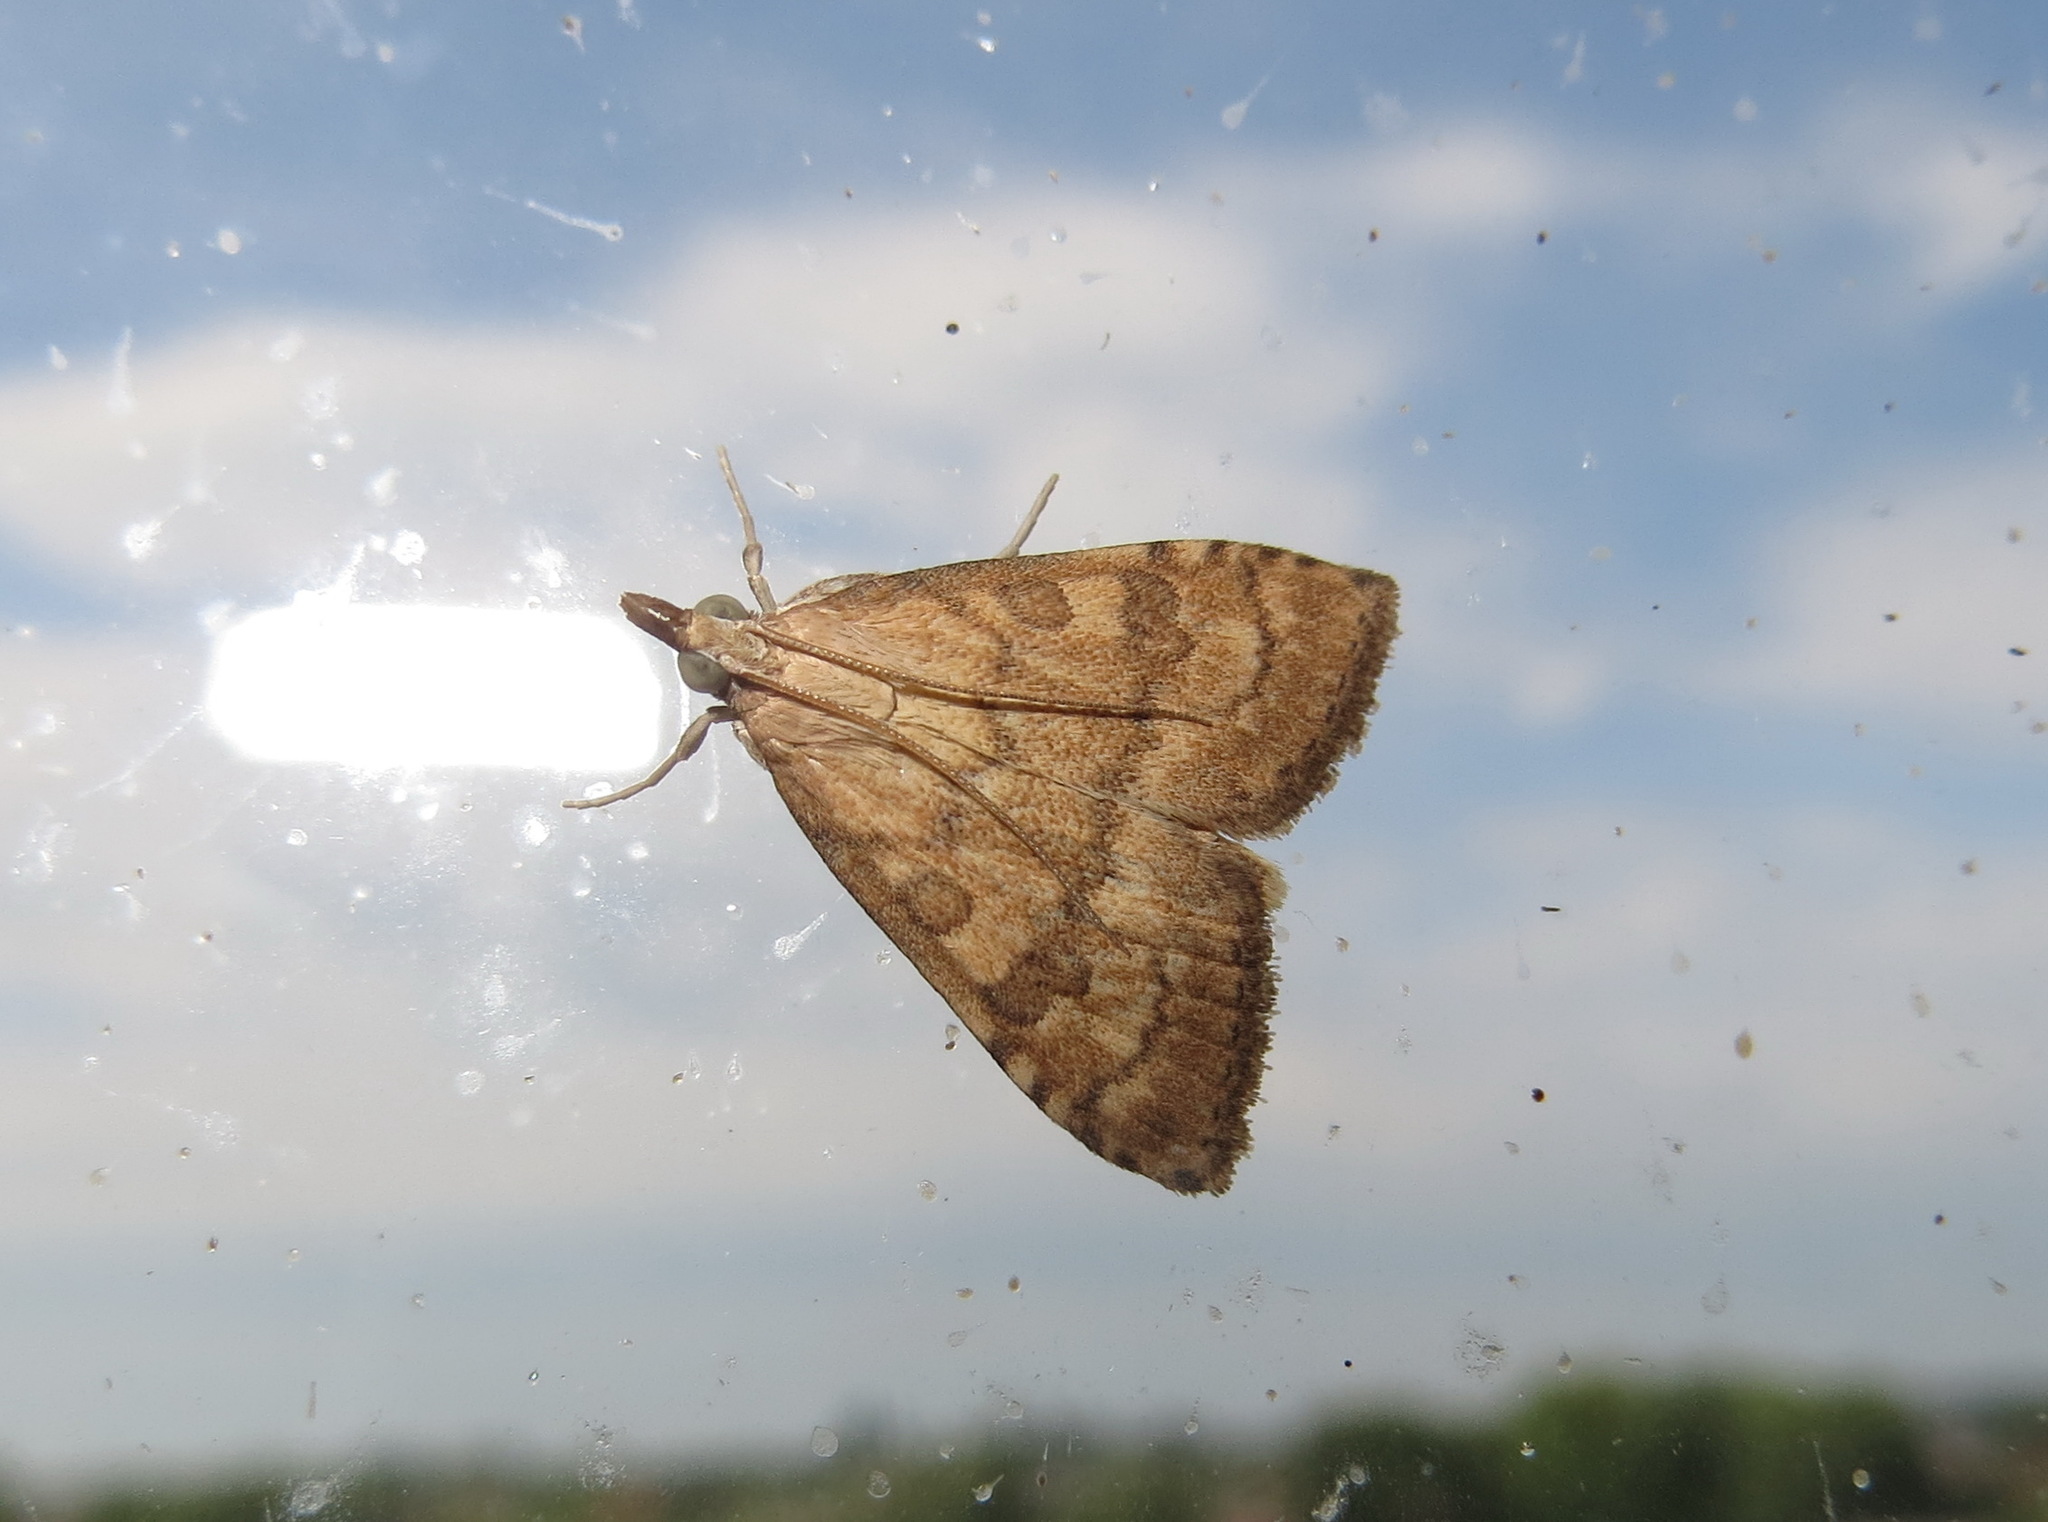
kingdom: Animalia
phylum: Arthropoda
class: Insecta
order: Lepidoptera
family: Crambidae
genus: Udea
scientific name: Udea fulvalis
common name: Fulvous pearl
